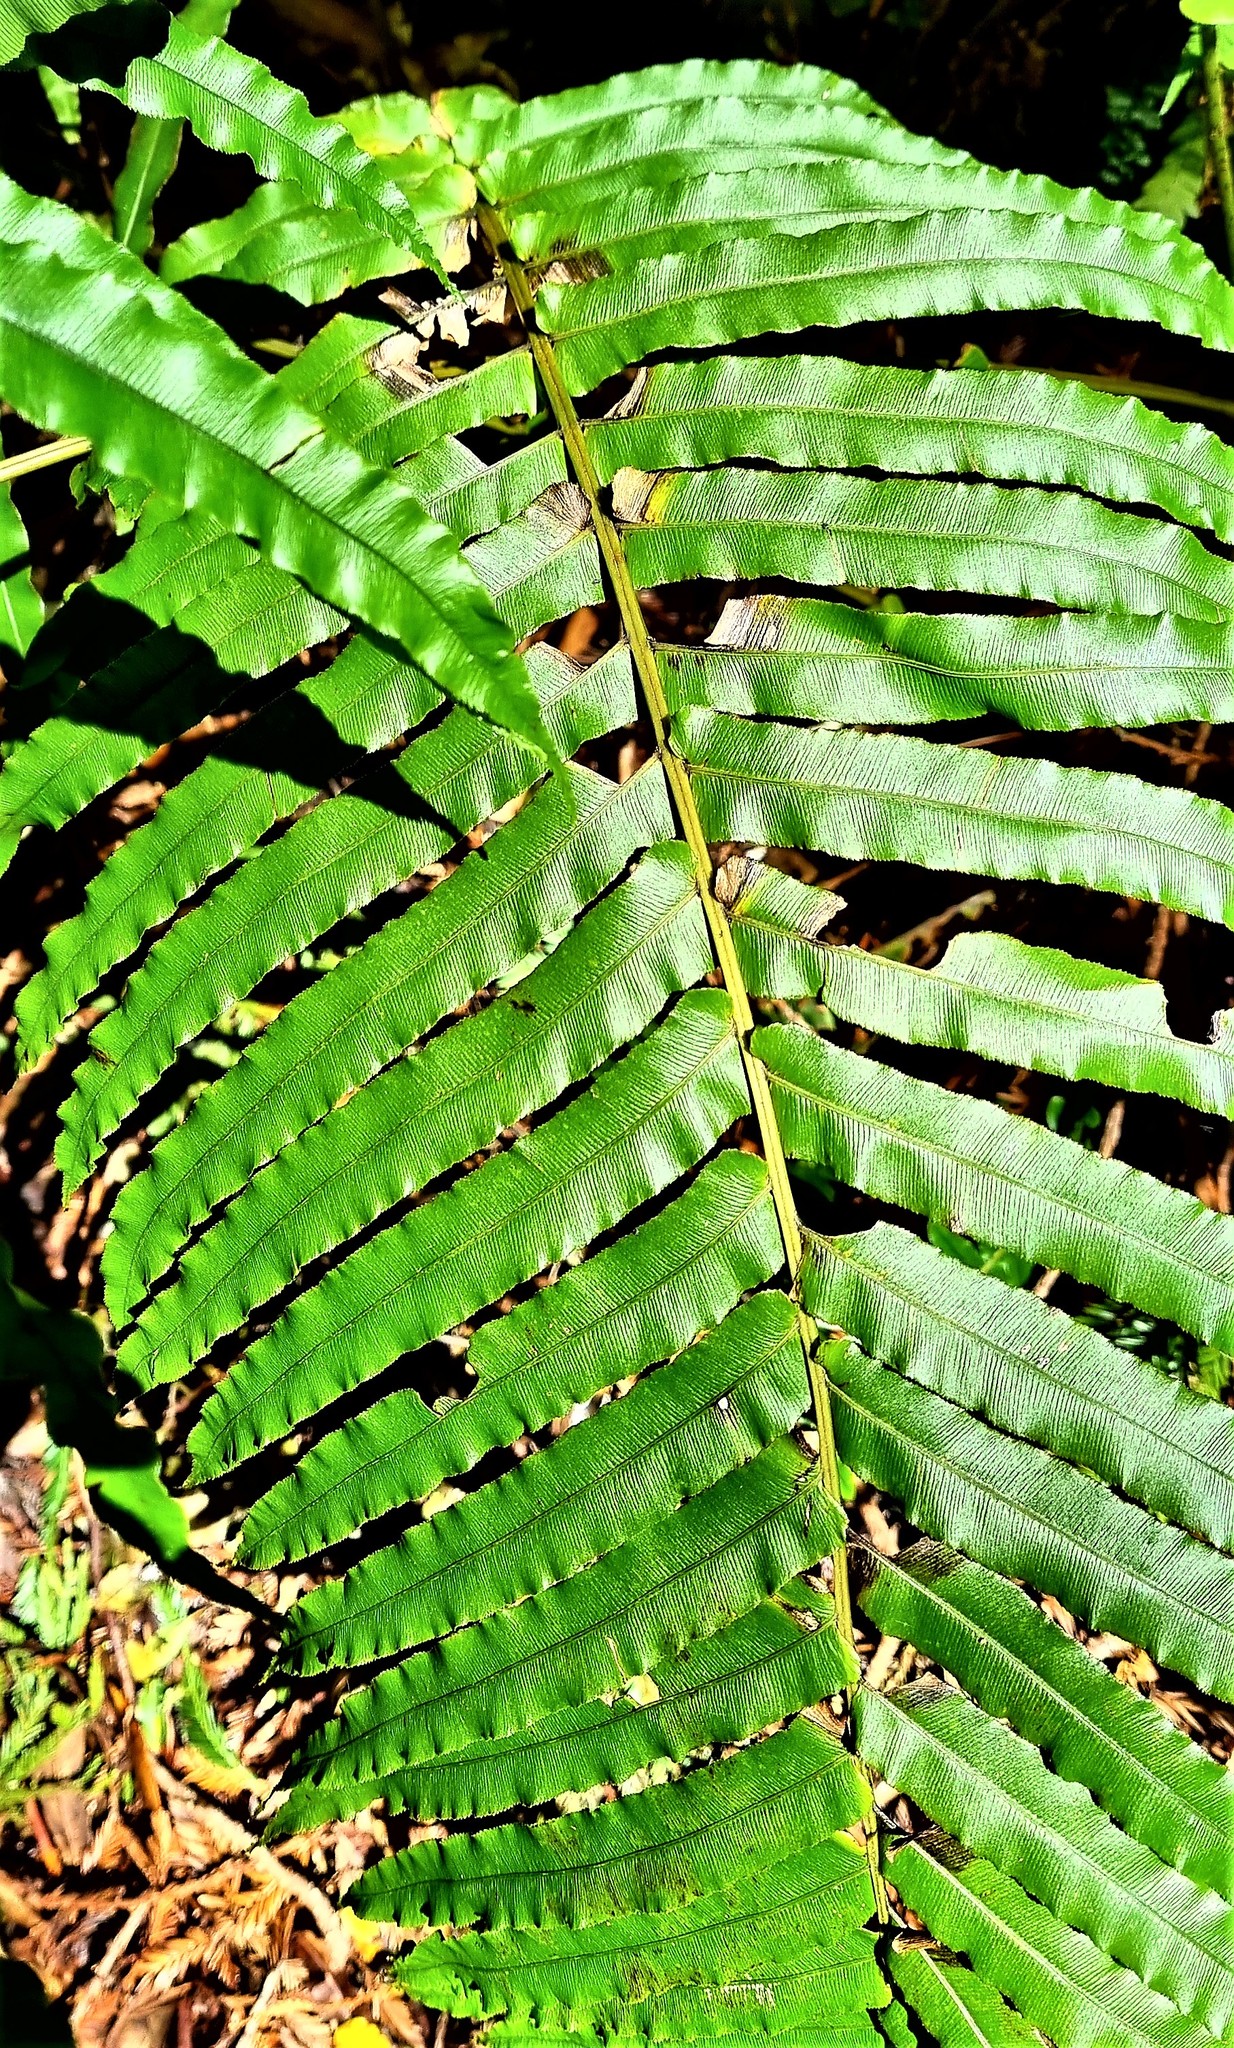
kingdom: Plantae
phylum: Tracheophyta
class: Polypodiopsida
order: Polypodiales
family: Blechnaceae
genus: Parablechnum
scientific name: Parablechnum novae-zelandiae
